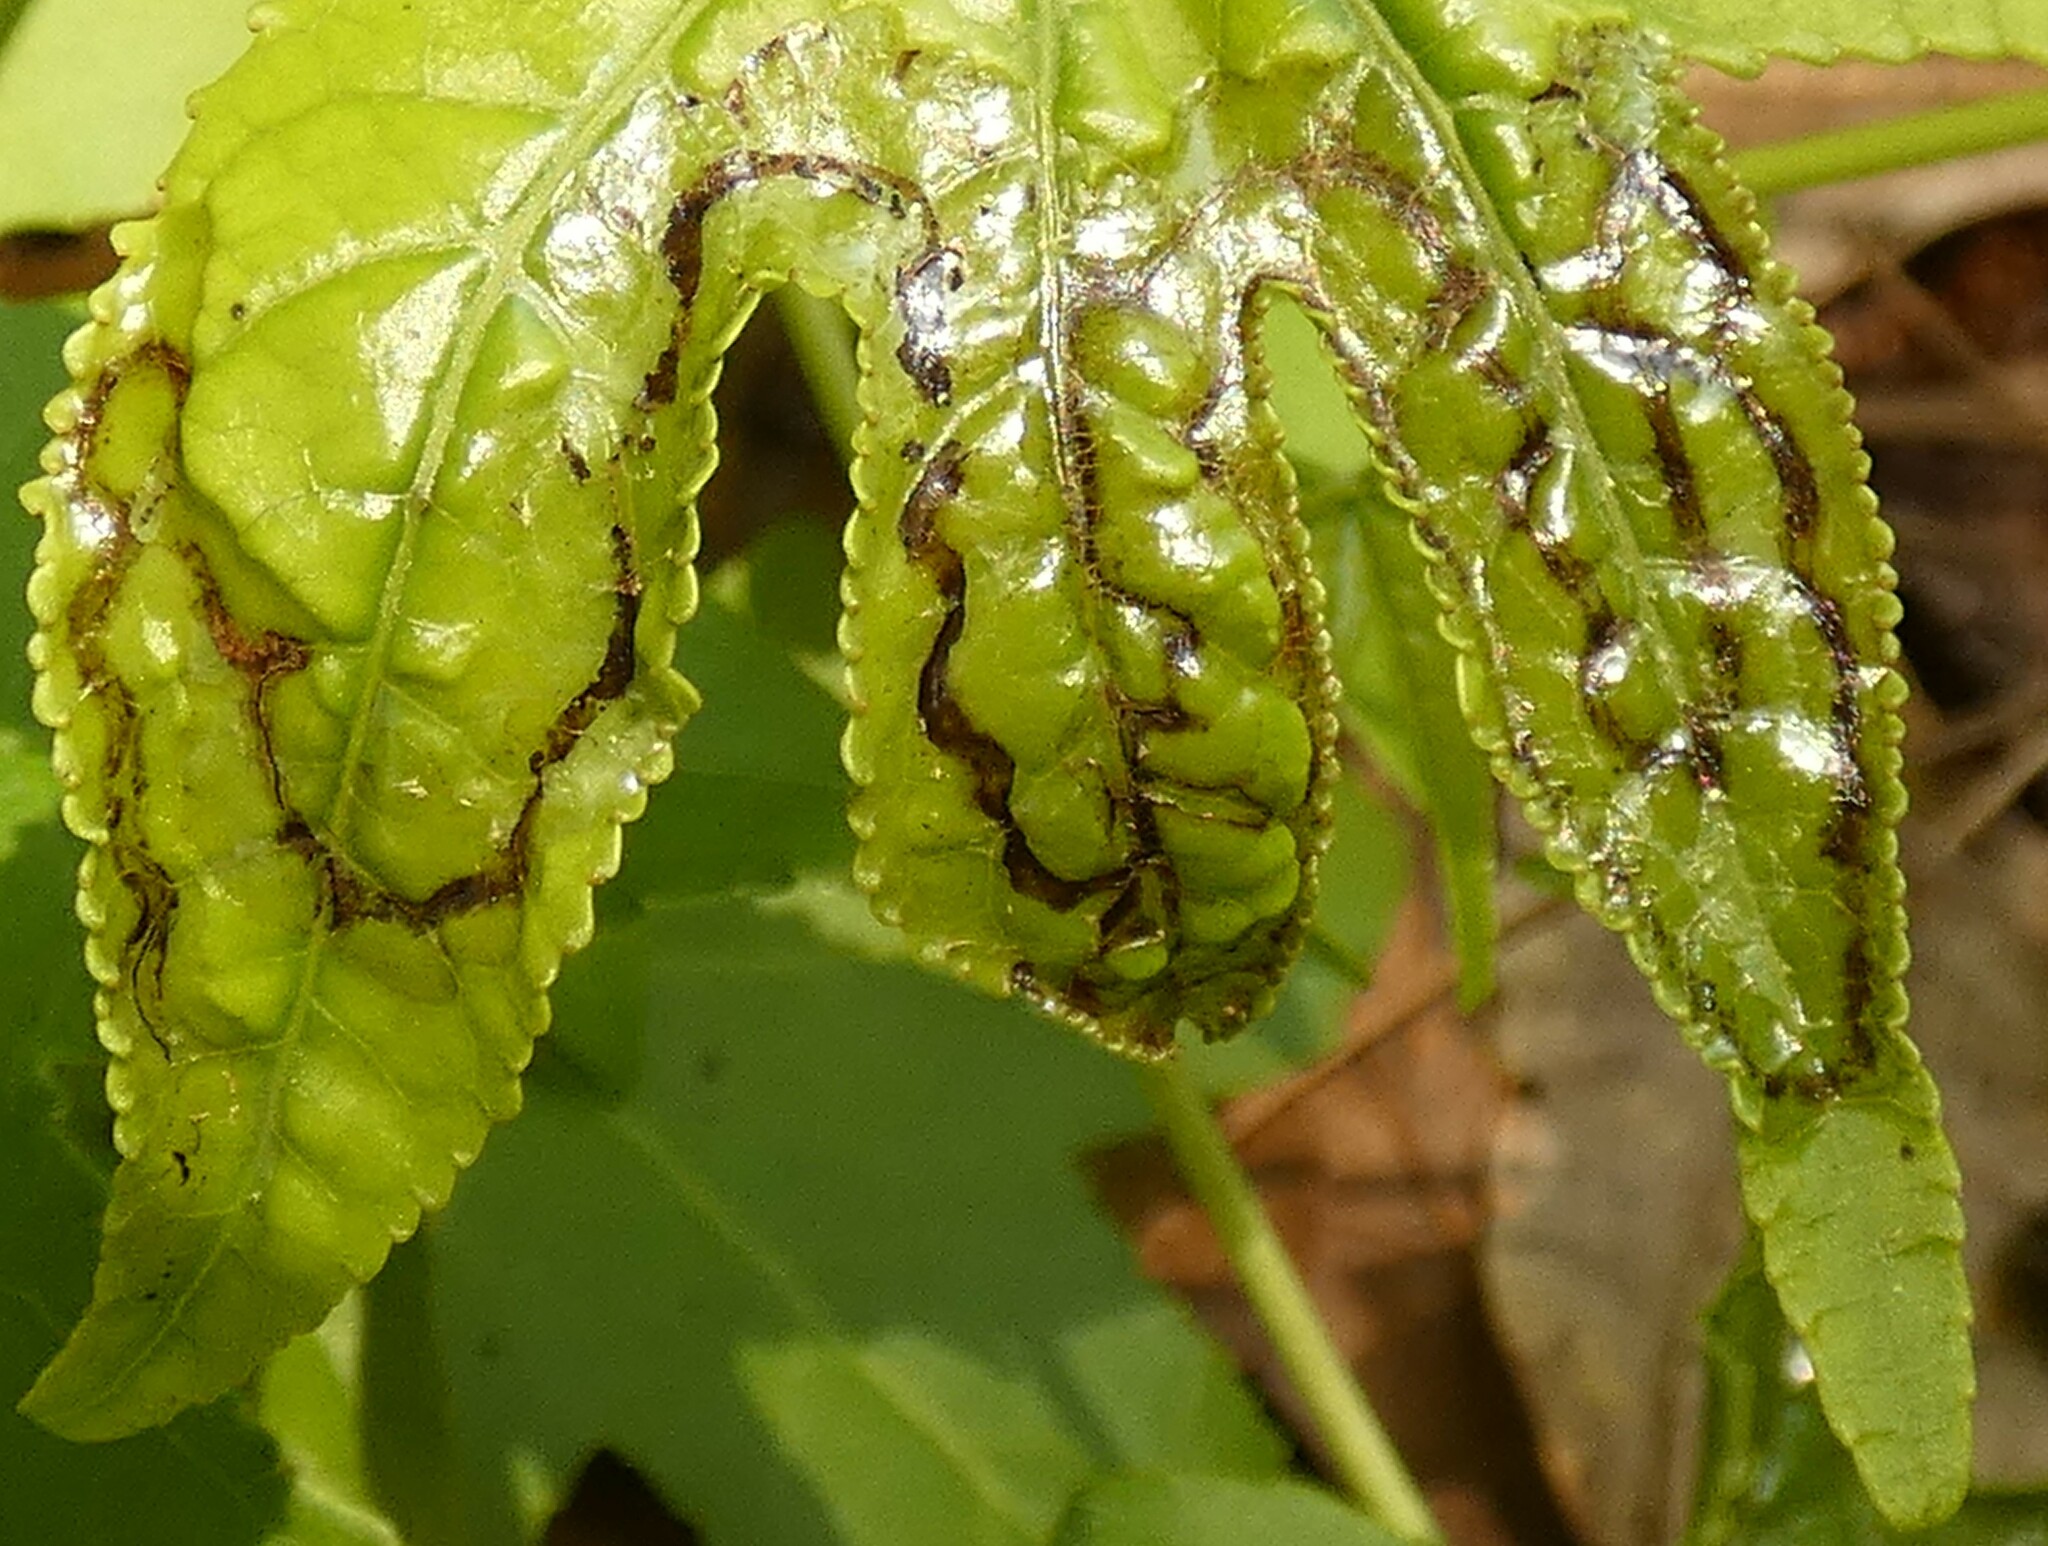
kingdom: Animalia
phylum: Arthropoda
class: Insecta
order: Lepidoptera
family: Gracillariidae
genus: Phyllocnistis
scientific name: Phyllocnistis liquidambarisella
